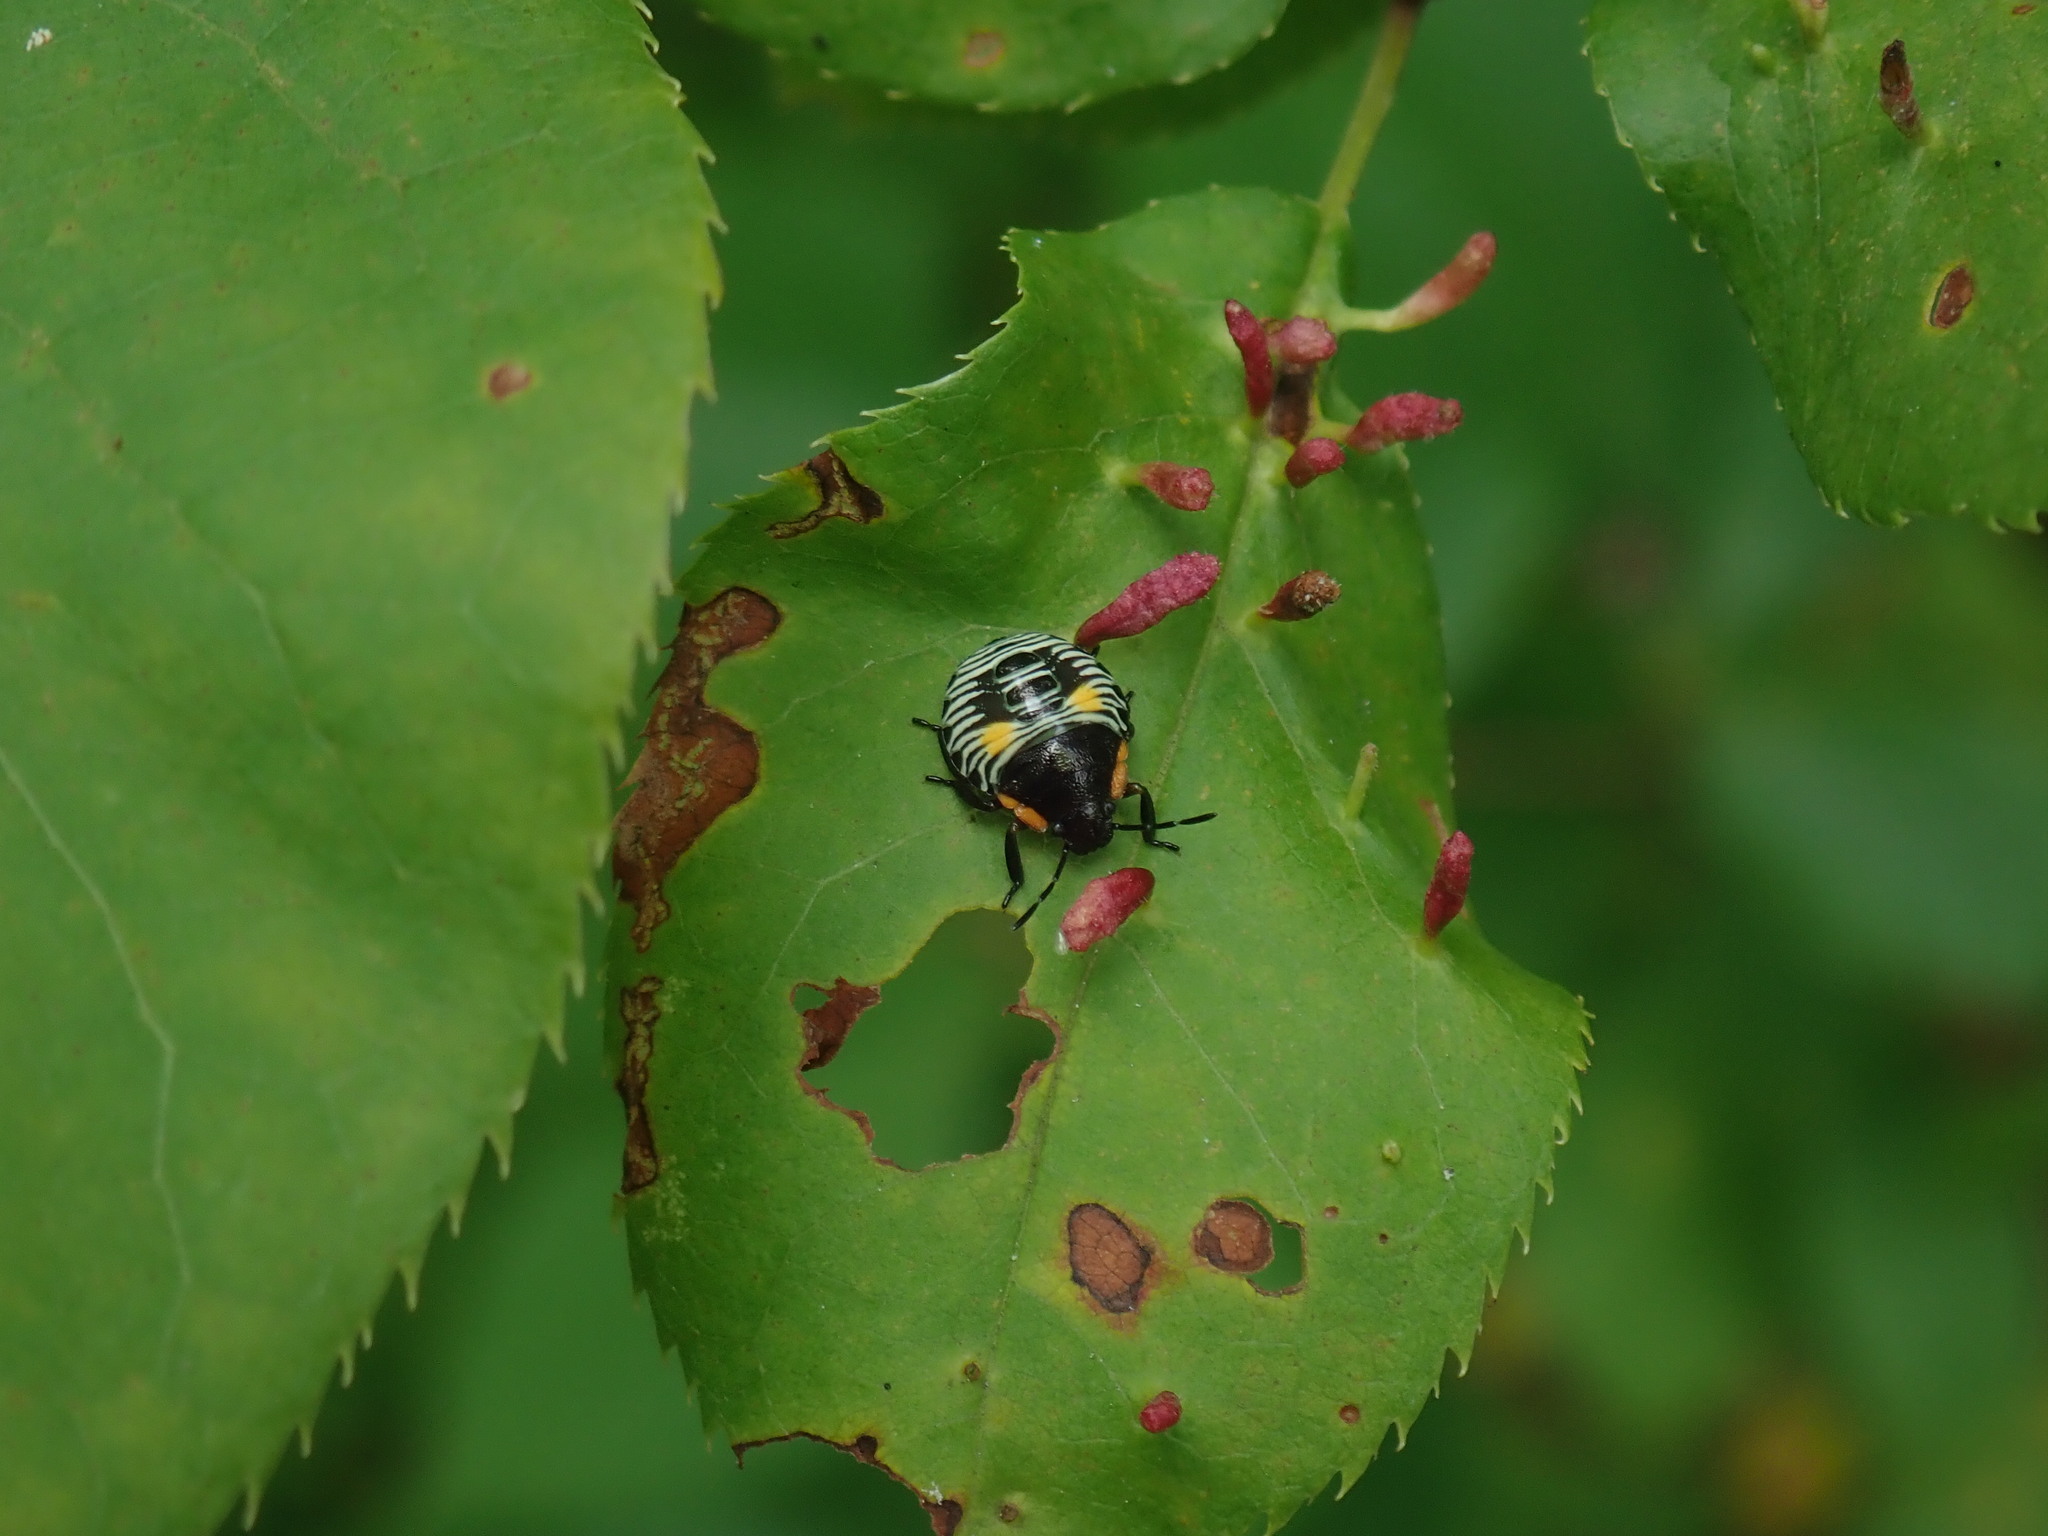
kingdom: Animalia
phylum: Arthropoda
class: Insecta
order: Hemiptera
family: Pentatomidae
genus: Chinavia
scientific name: Chinavia hilaris
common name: Green stink bug
